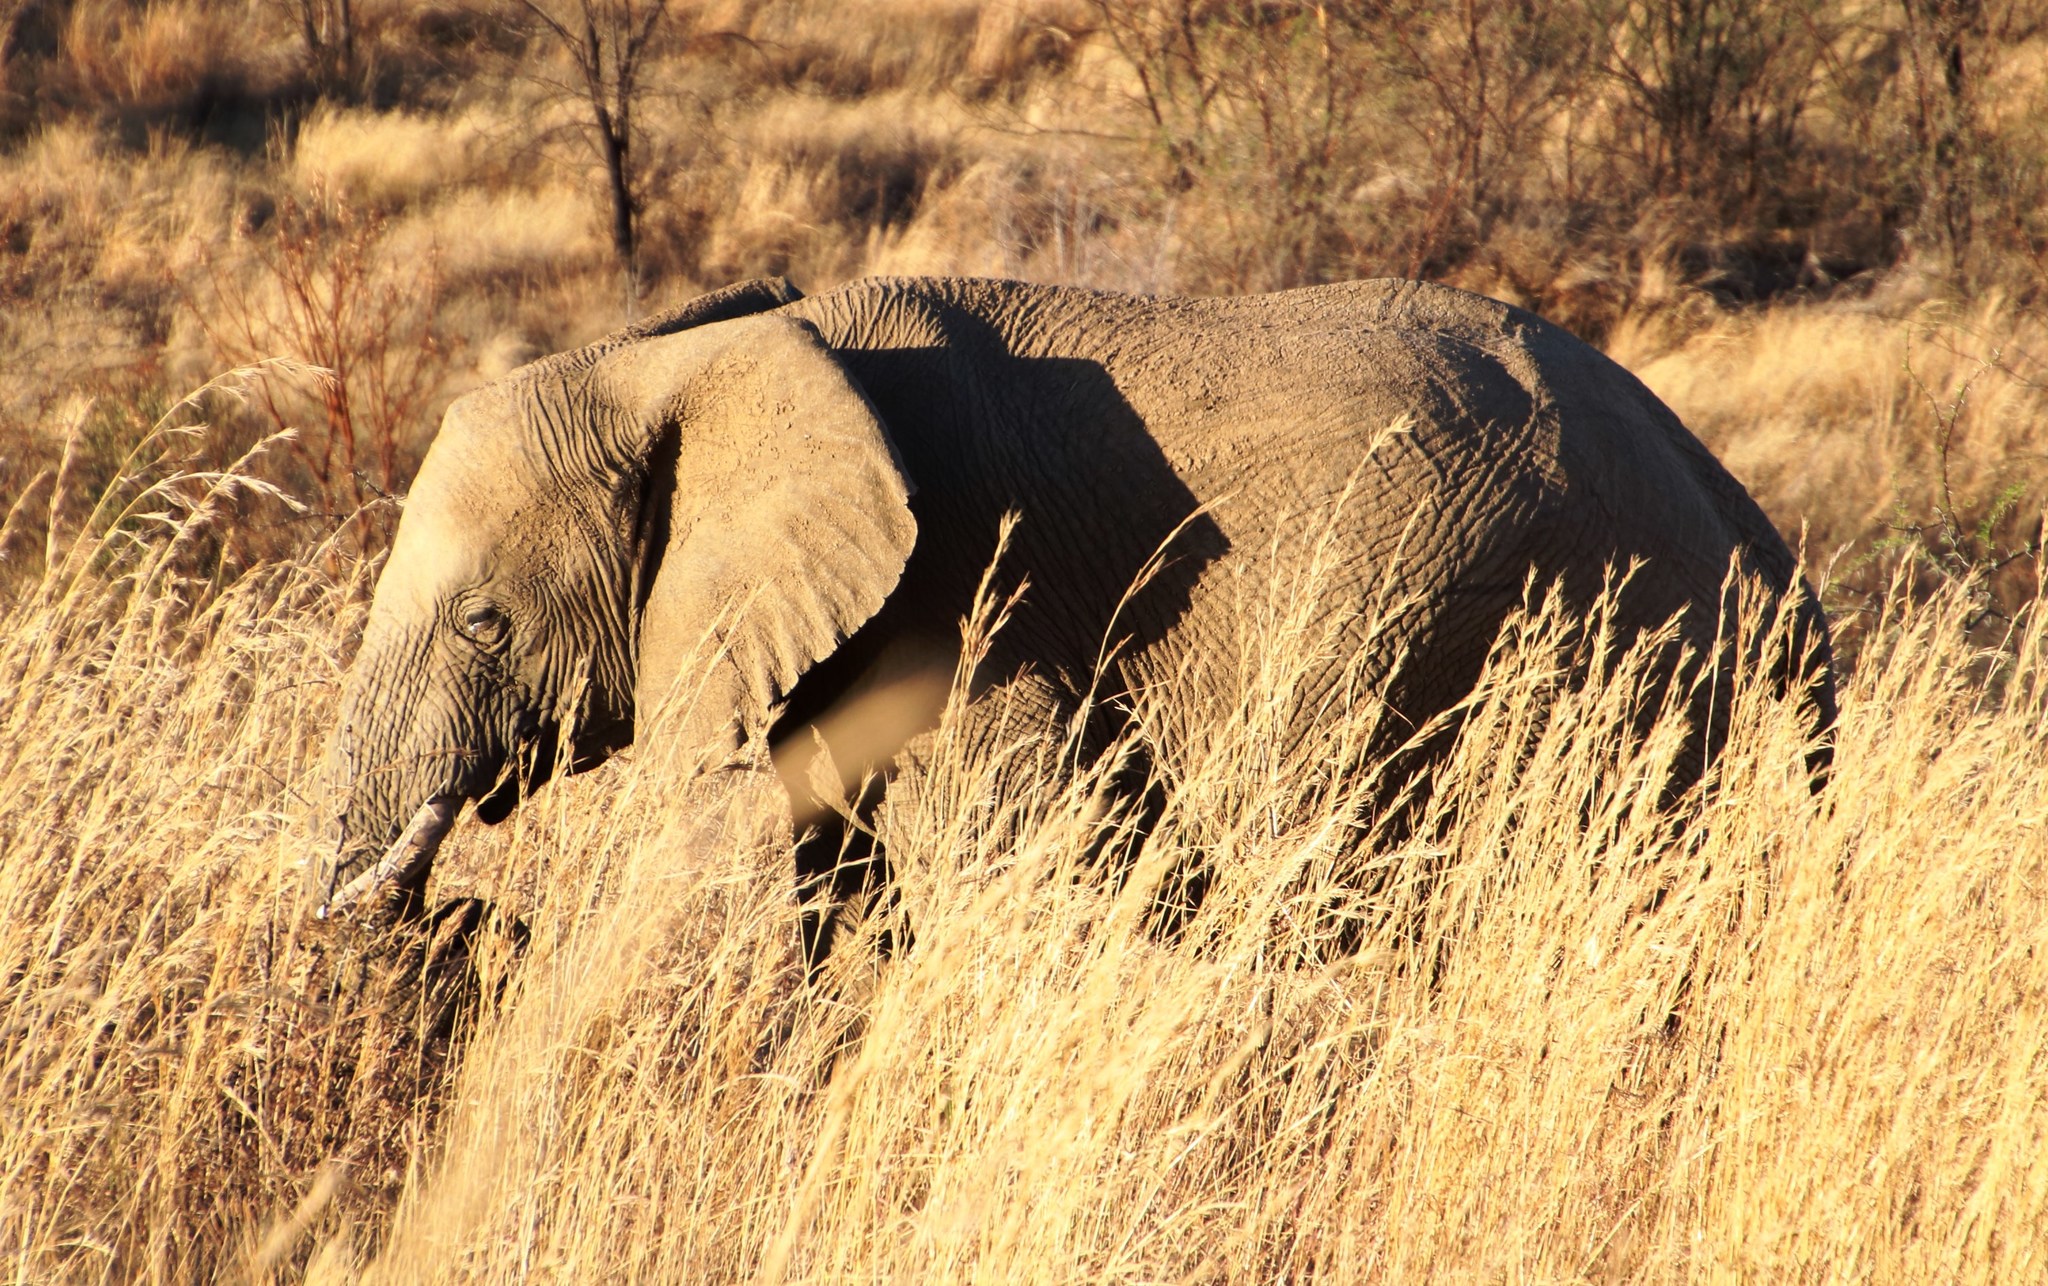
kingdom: Animalia
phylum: Chordata
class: Mammalia
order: Proboscidea
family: Elephantidae
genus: Loxodonta
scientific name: Loxodonta africana
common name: African elephant
